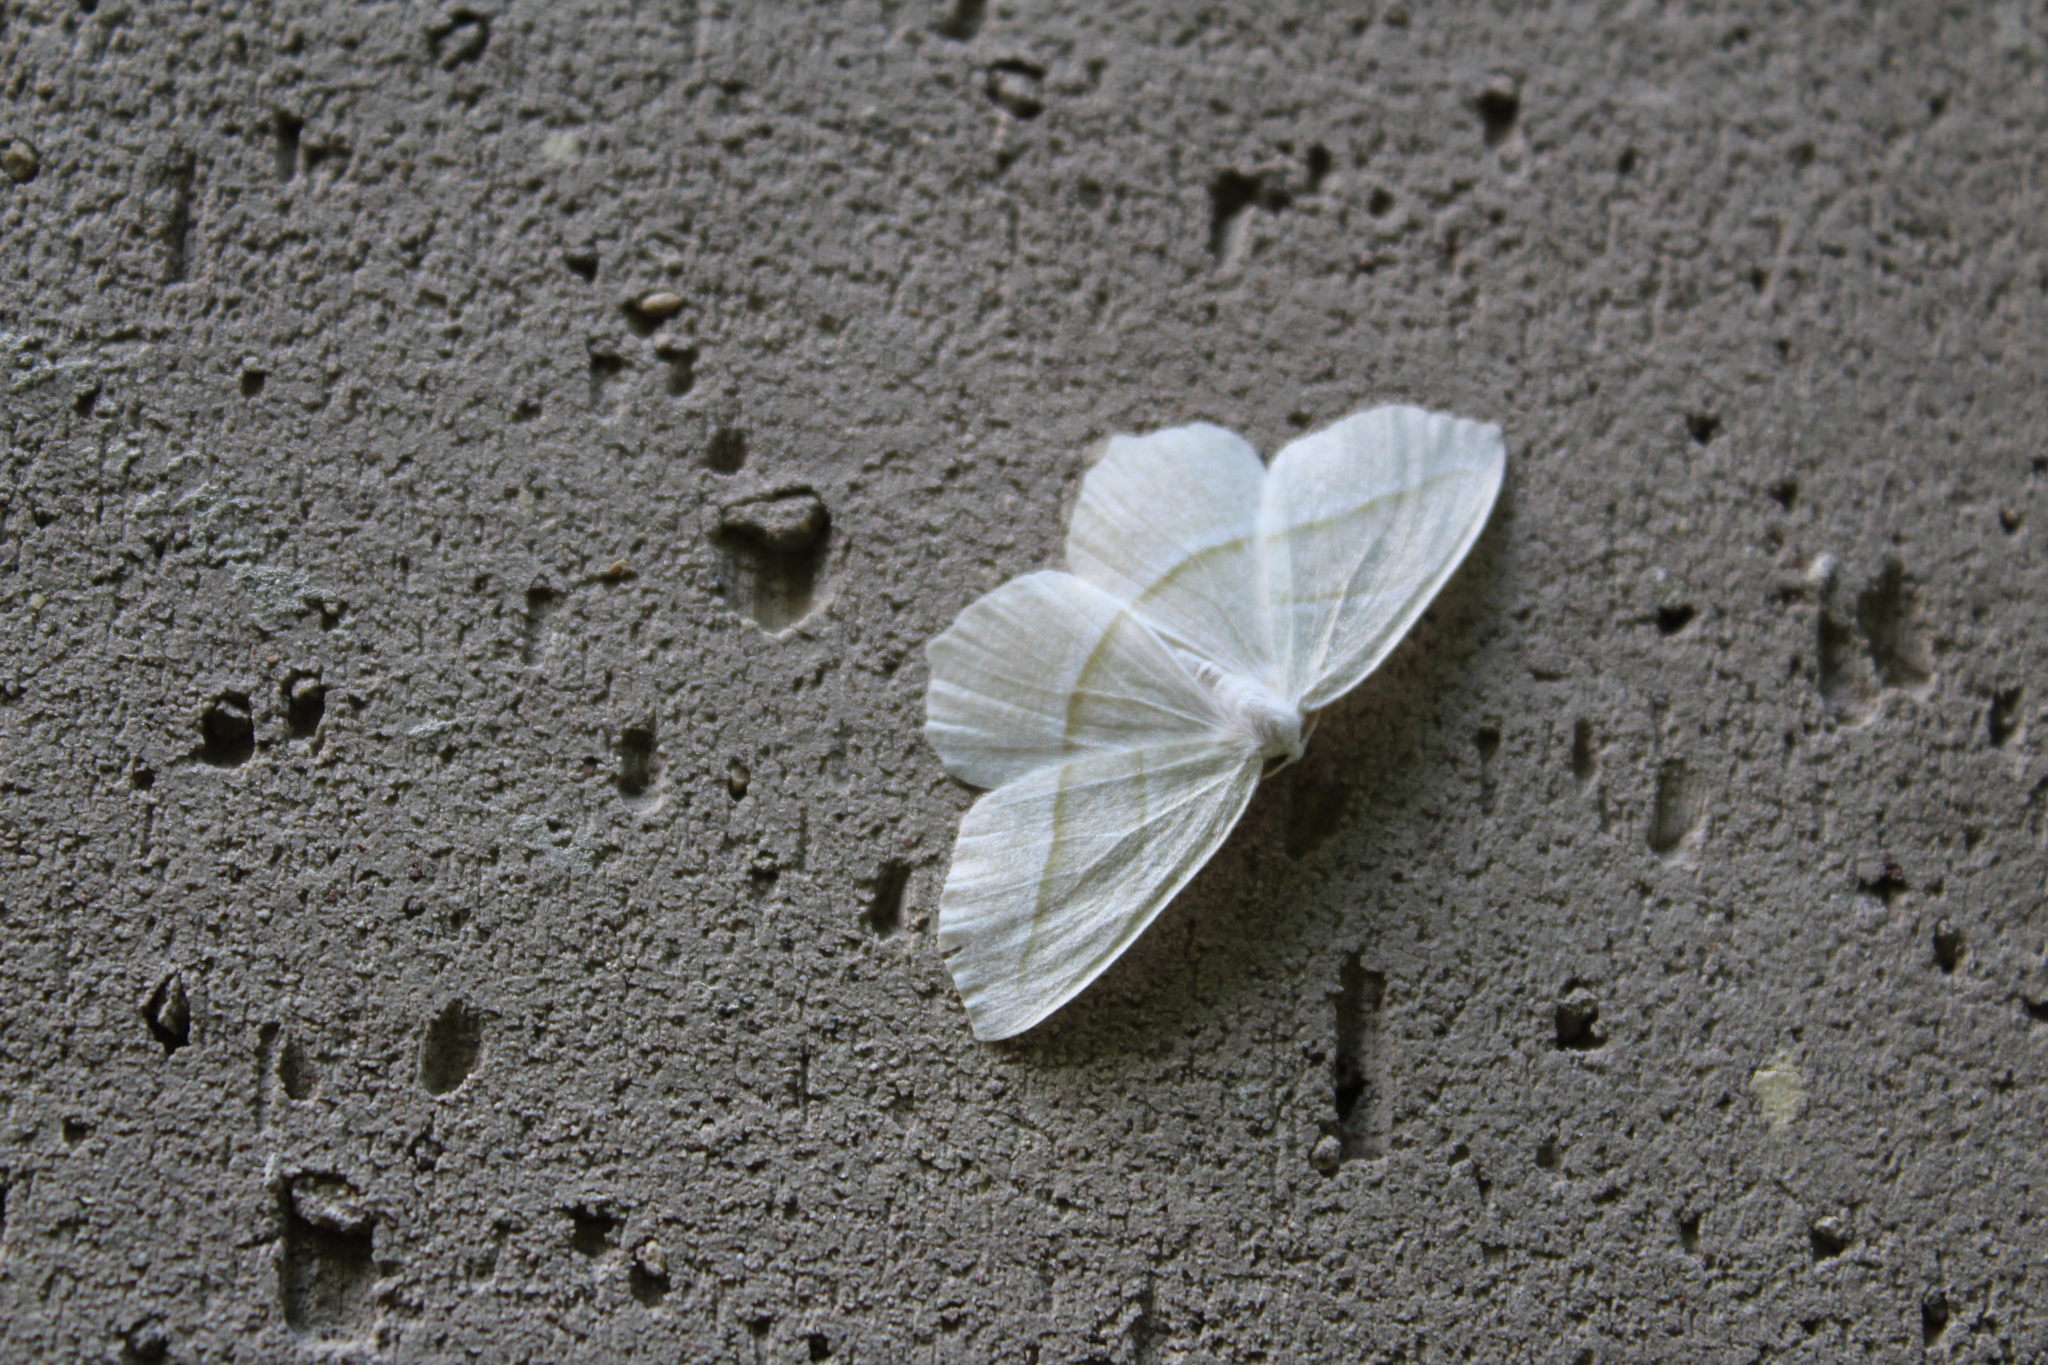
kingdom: Animalia
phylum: Arthropoda
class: Insecta
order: Lepidoptera
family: Geometridae
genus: Campaea
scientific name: Campaea perlata
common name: Fringed looper
